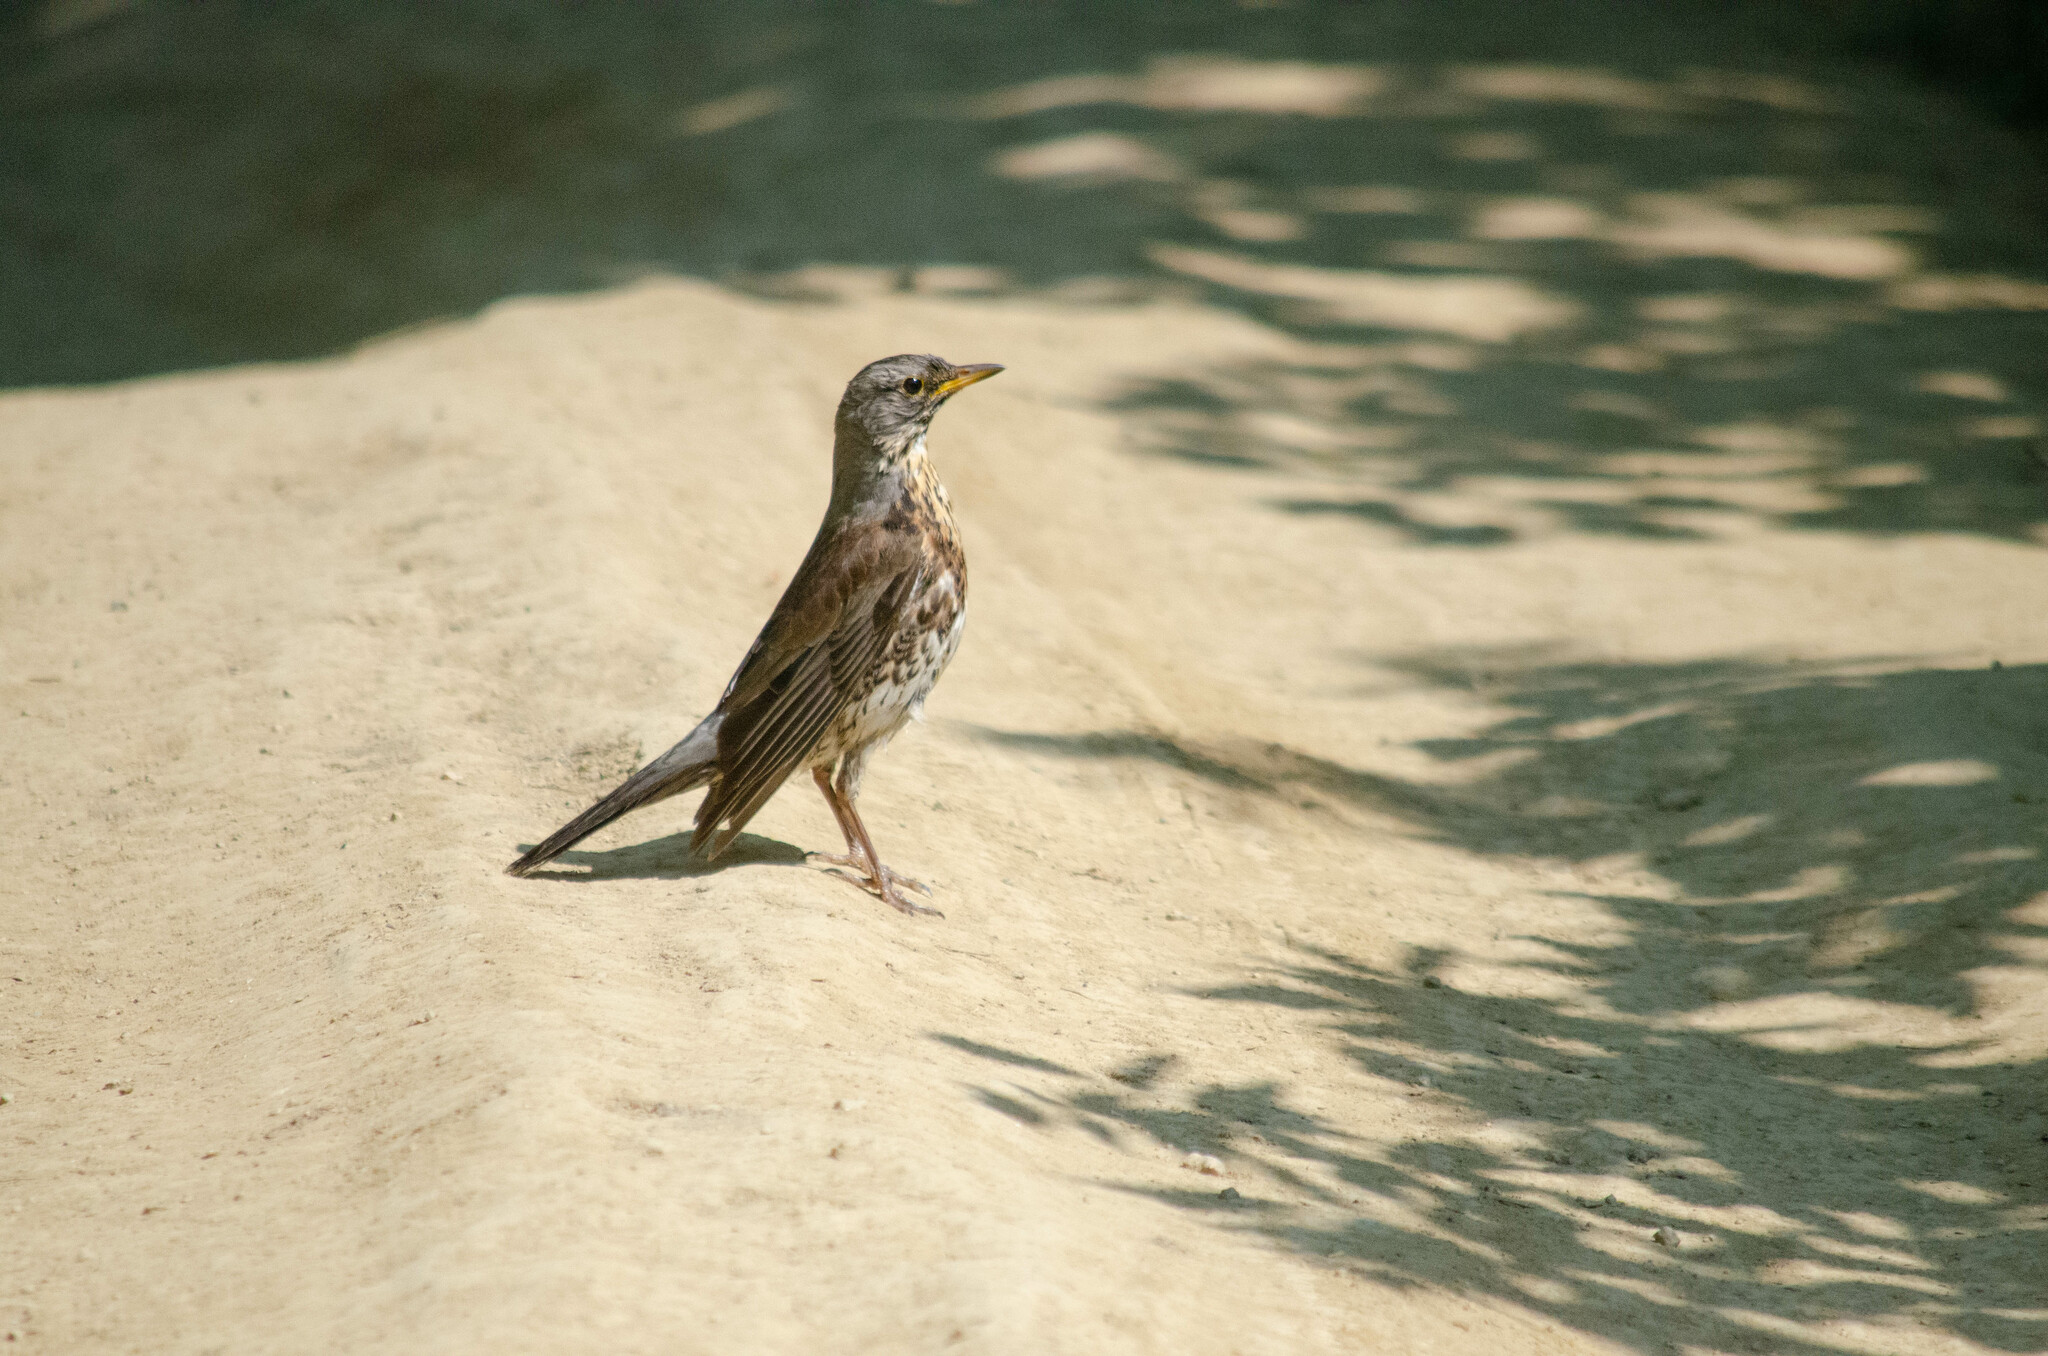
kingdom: Animalia
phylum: Chordata
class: Aves
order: Passeriformes
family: Turdidae
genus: Turdus
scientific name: Turdus pilaris
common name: Fieldfare
